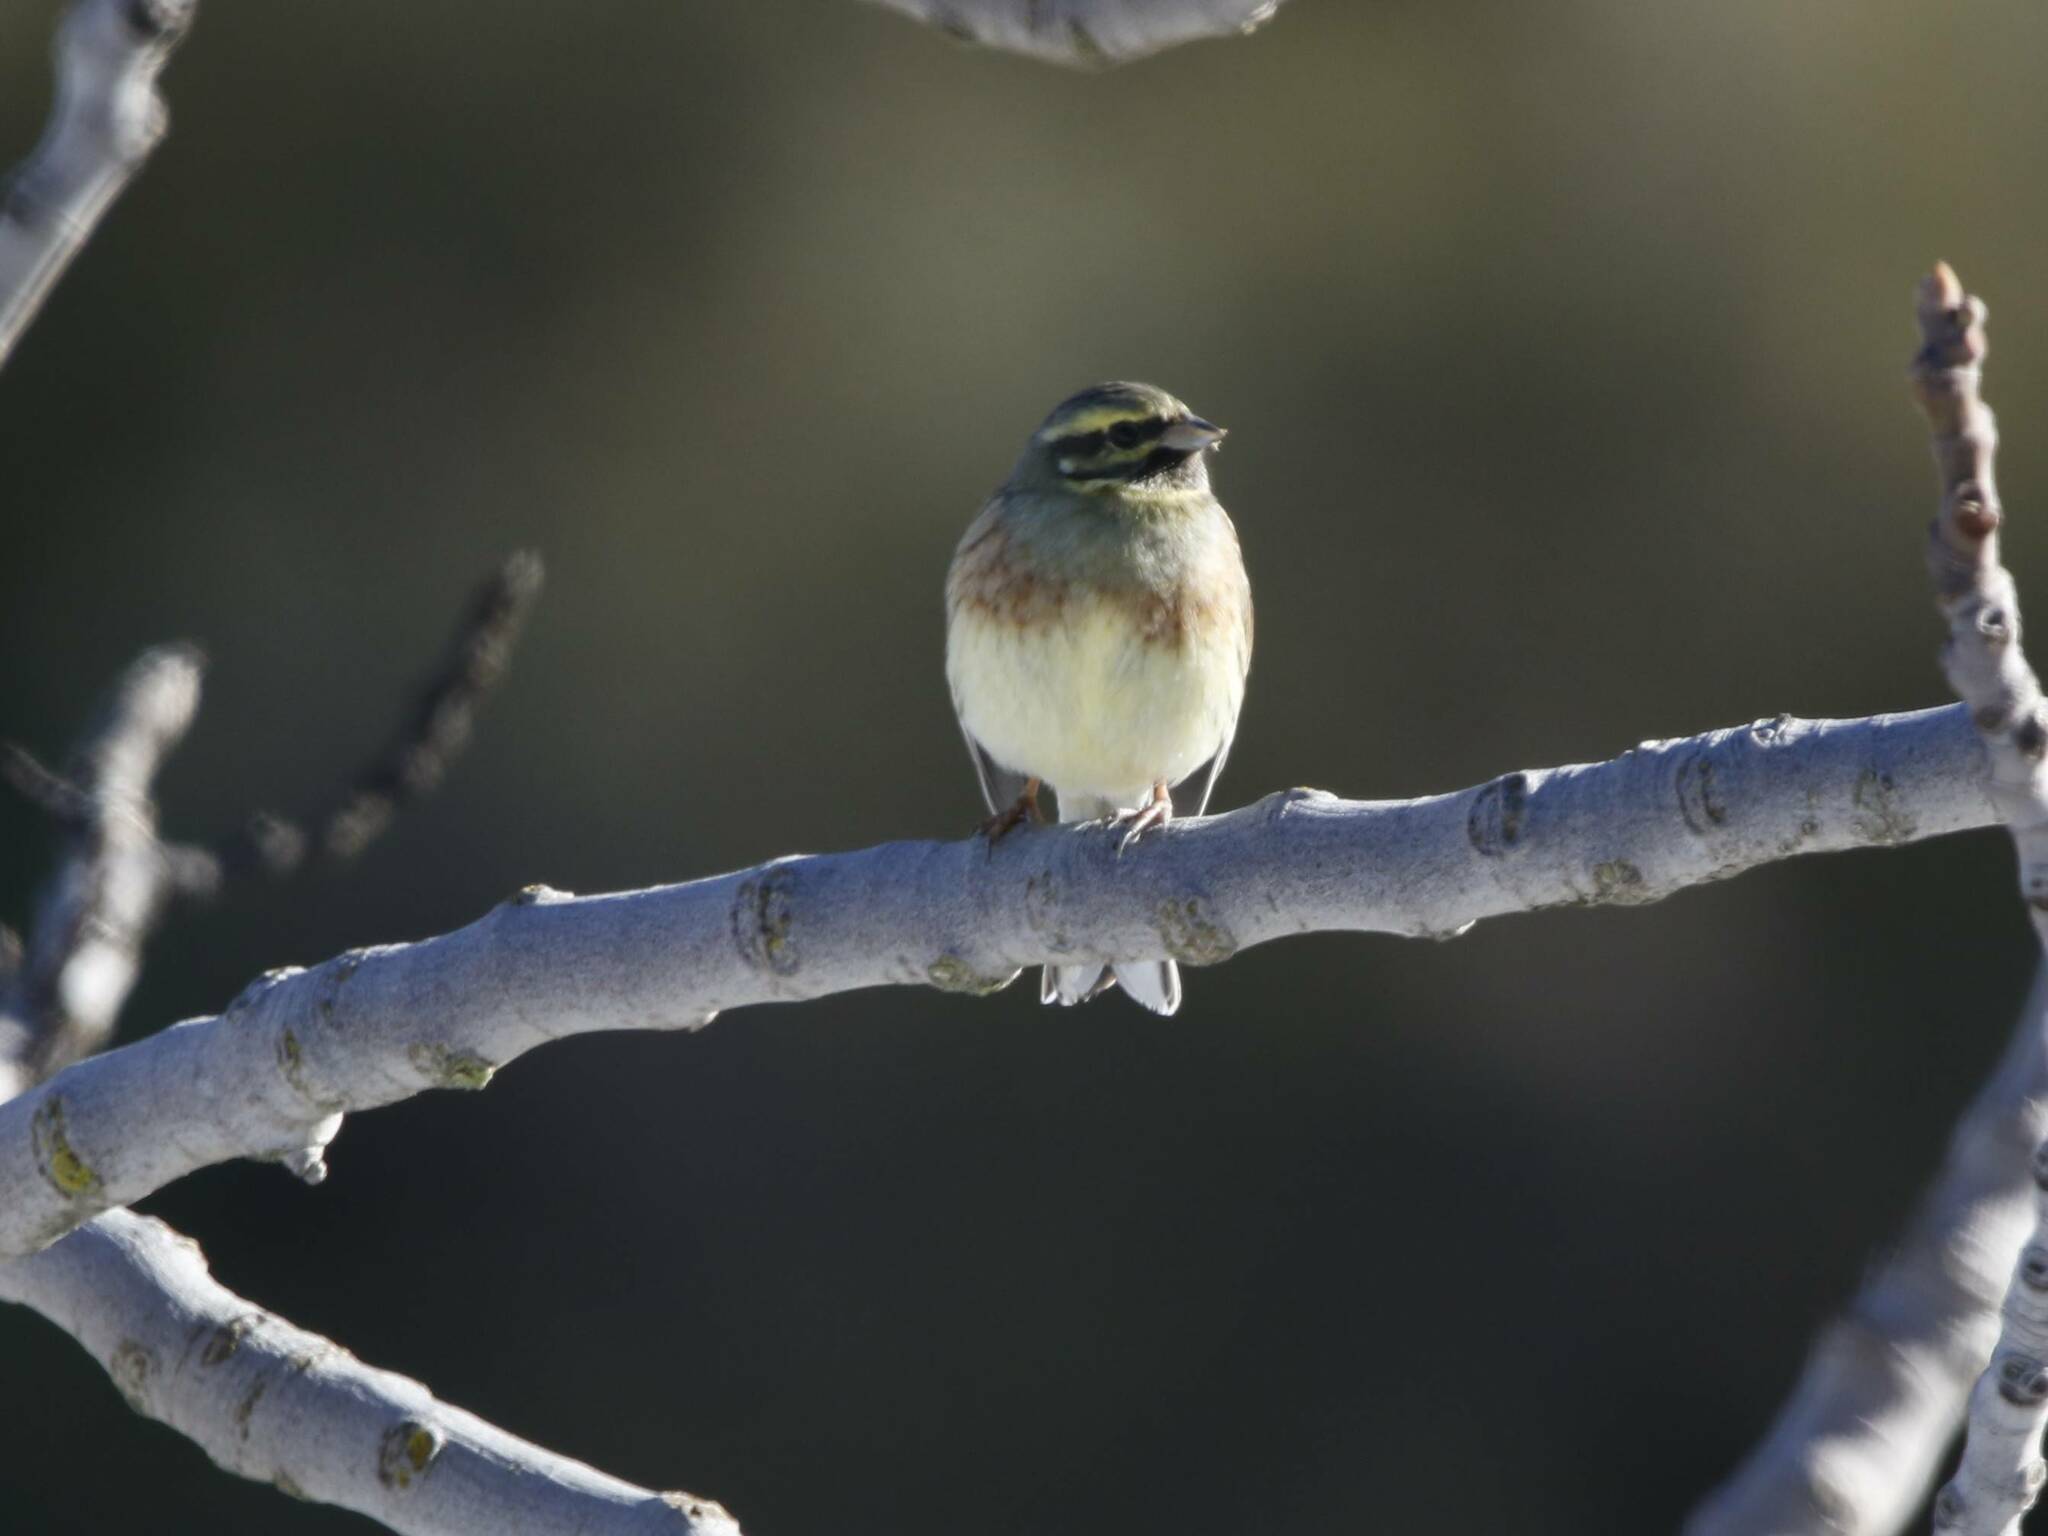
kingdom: Animalia
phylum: Chordata
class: Aves
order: Passeriformes
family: Emberizidae
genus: Emberiza
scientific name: Emberiza cirlus
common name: Cirl bunting
